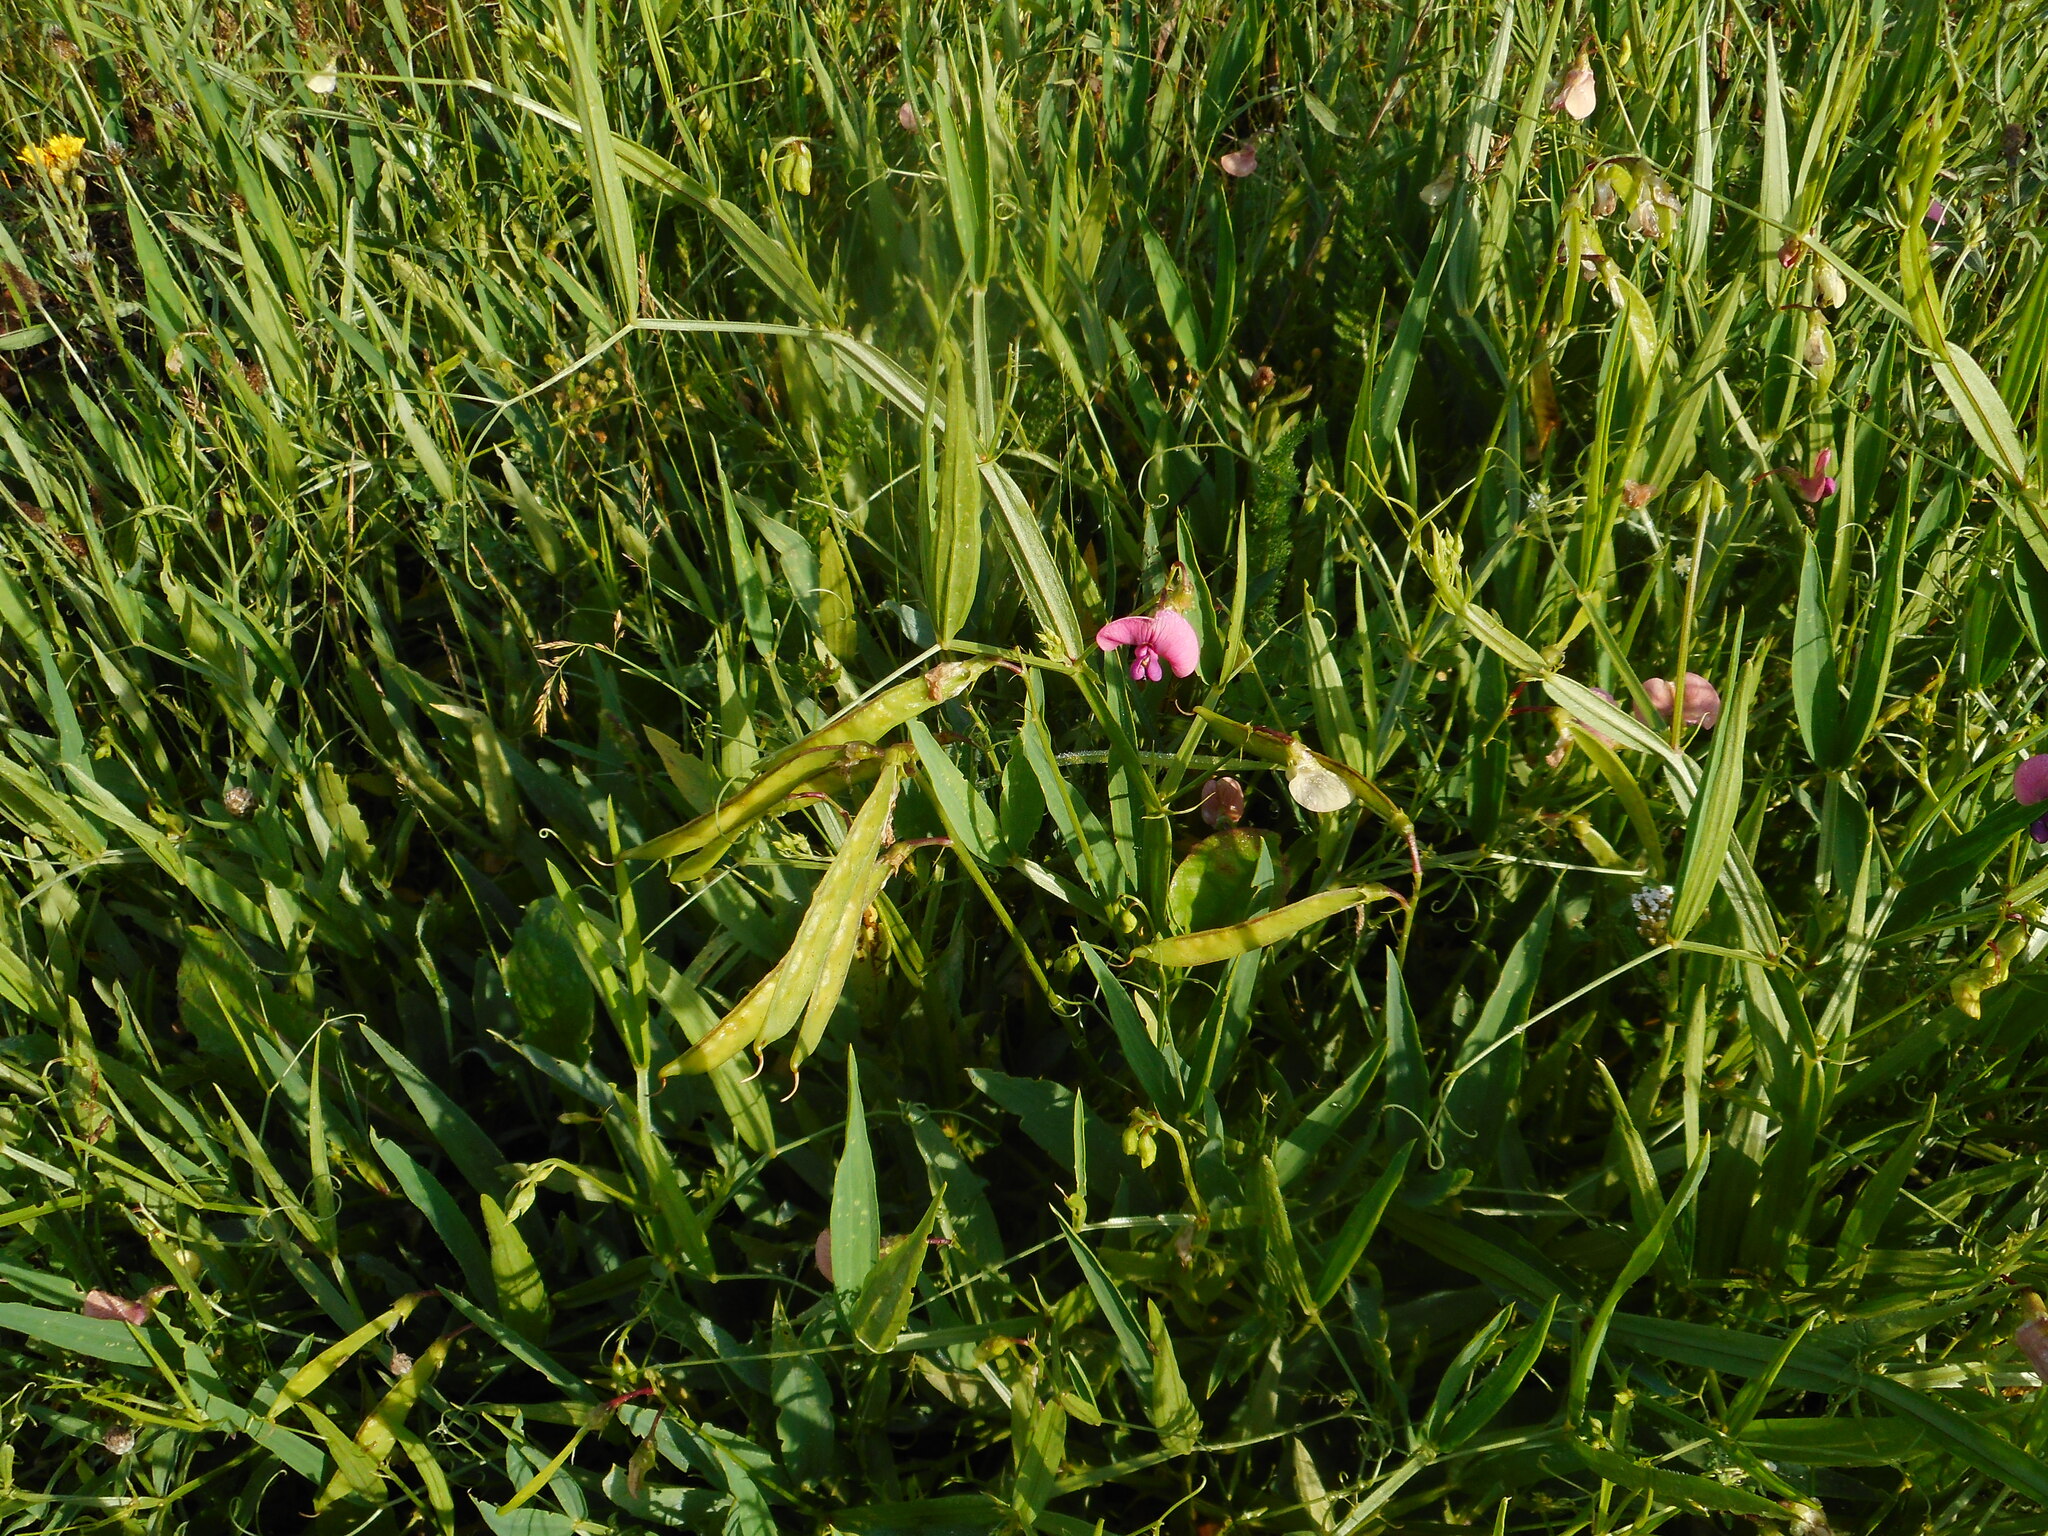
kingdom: Plantae
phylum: Tracheophyta
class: Magnoliopsida
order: Fabales
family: Fabaceae
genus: Lathyrus
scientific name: Lathyrus sylvestris
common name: Flat pea
